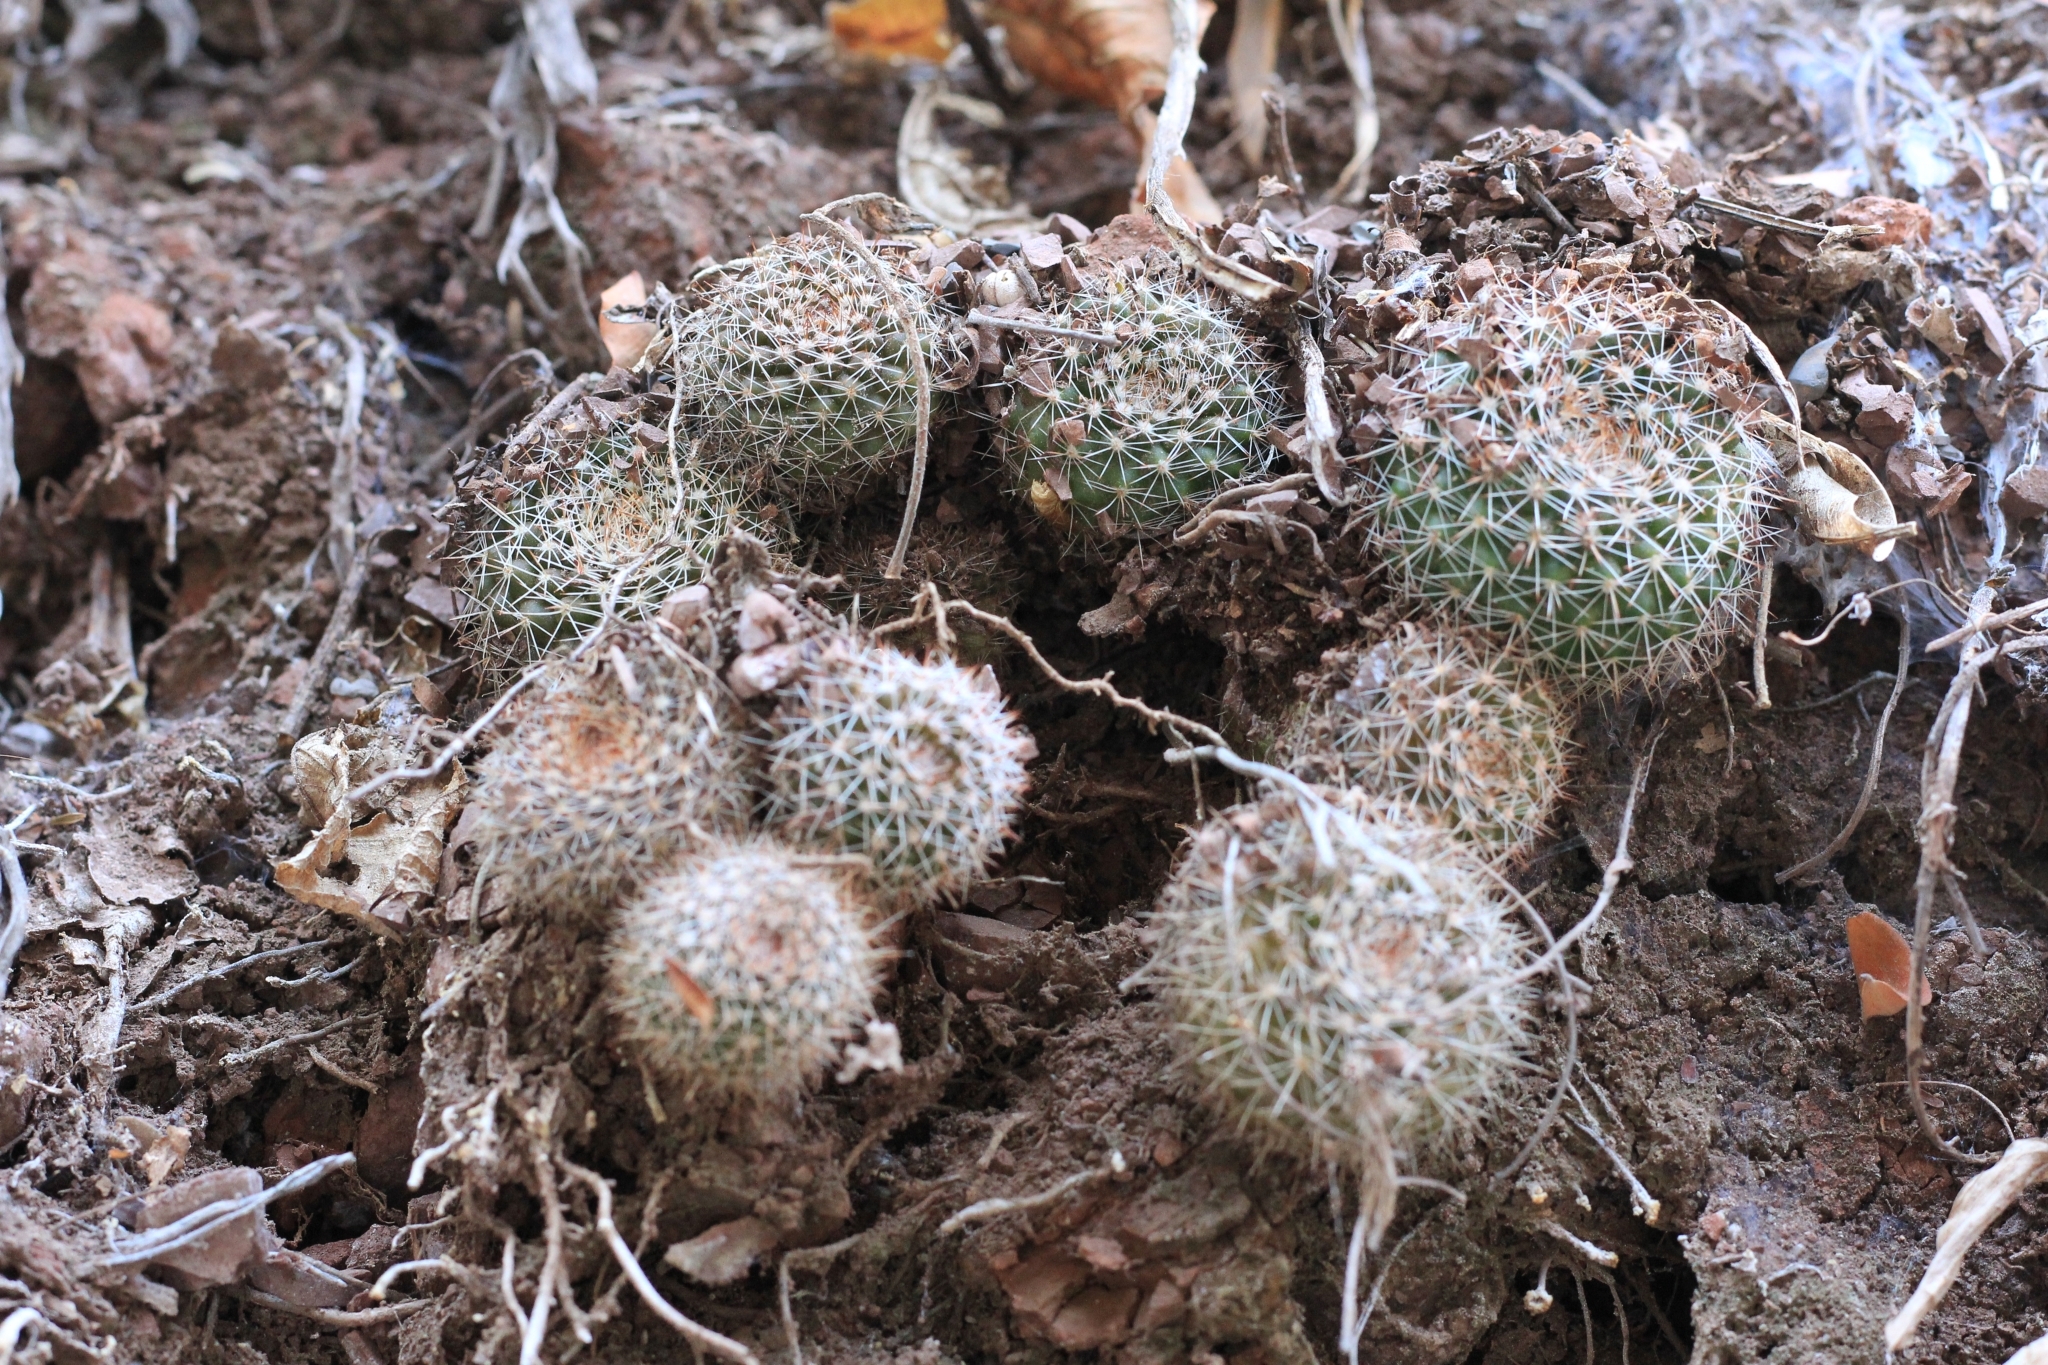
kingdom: Plantae
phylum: Tracheophyta
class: Magnoliopsida
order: Caryophyllales
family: Cactaceae
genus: Parodia
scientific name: Parodia formosa
